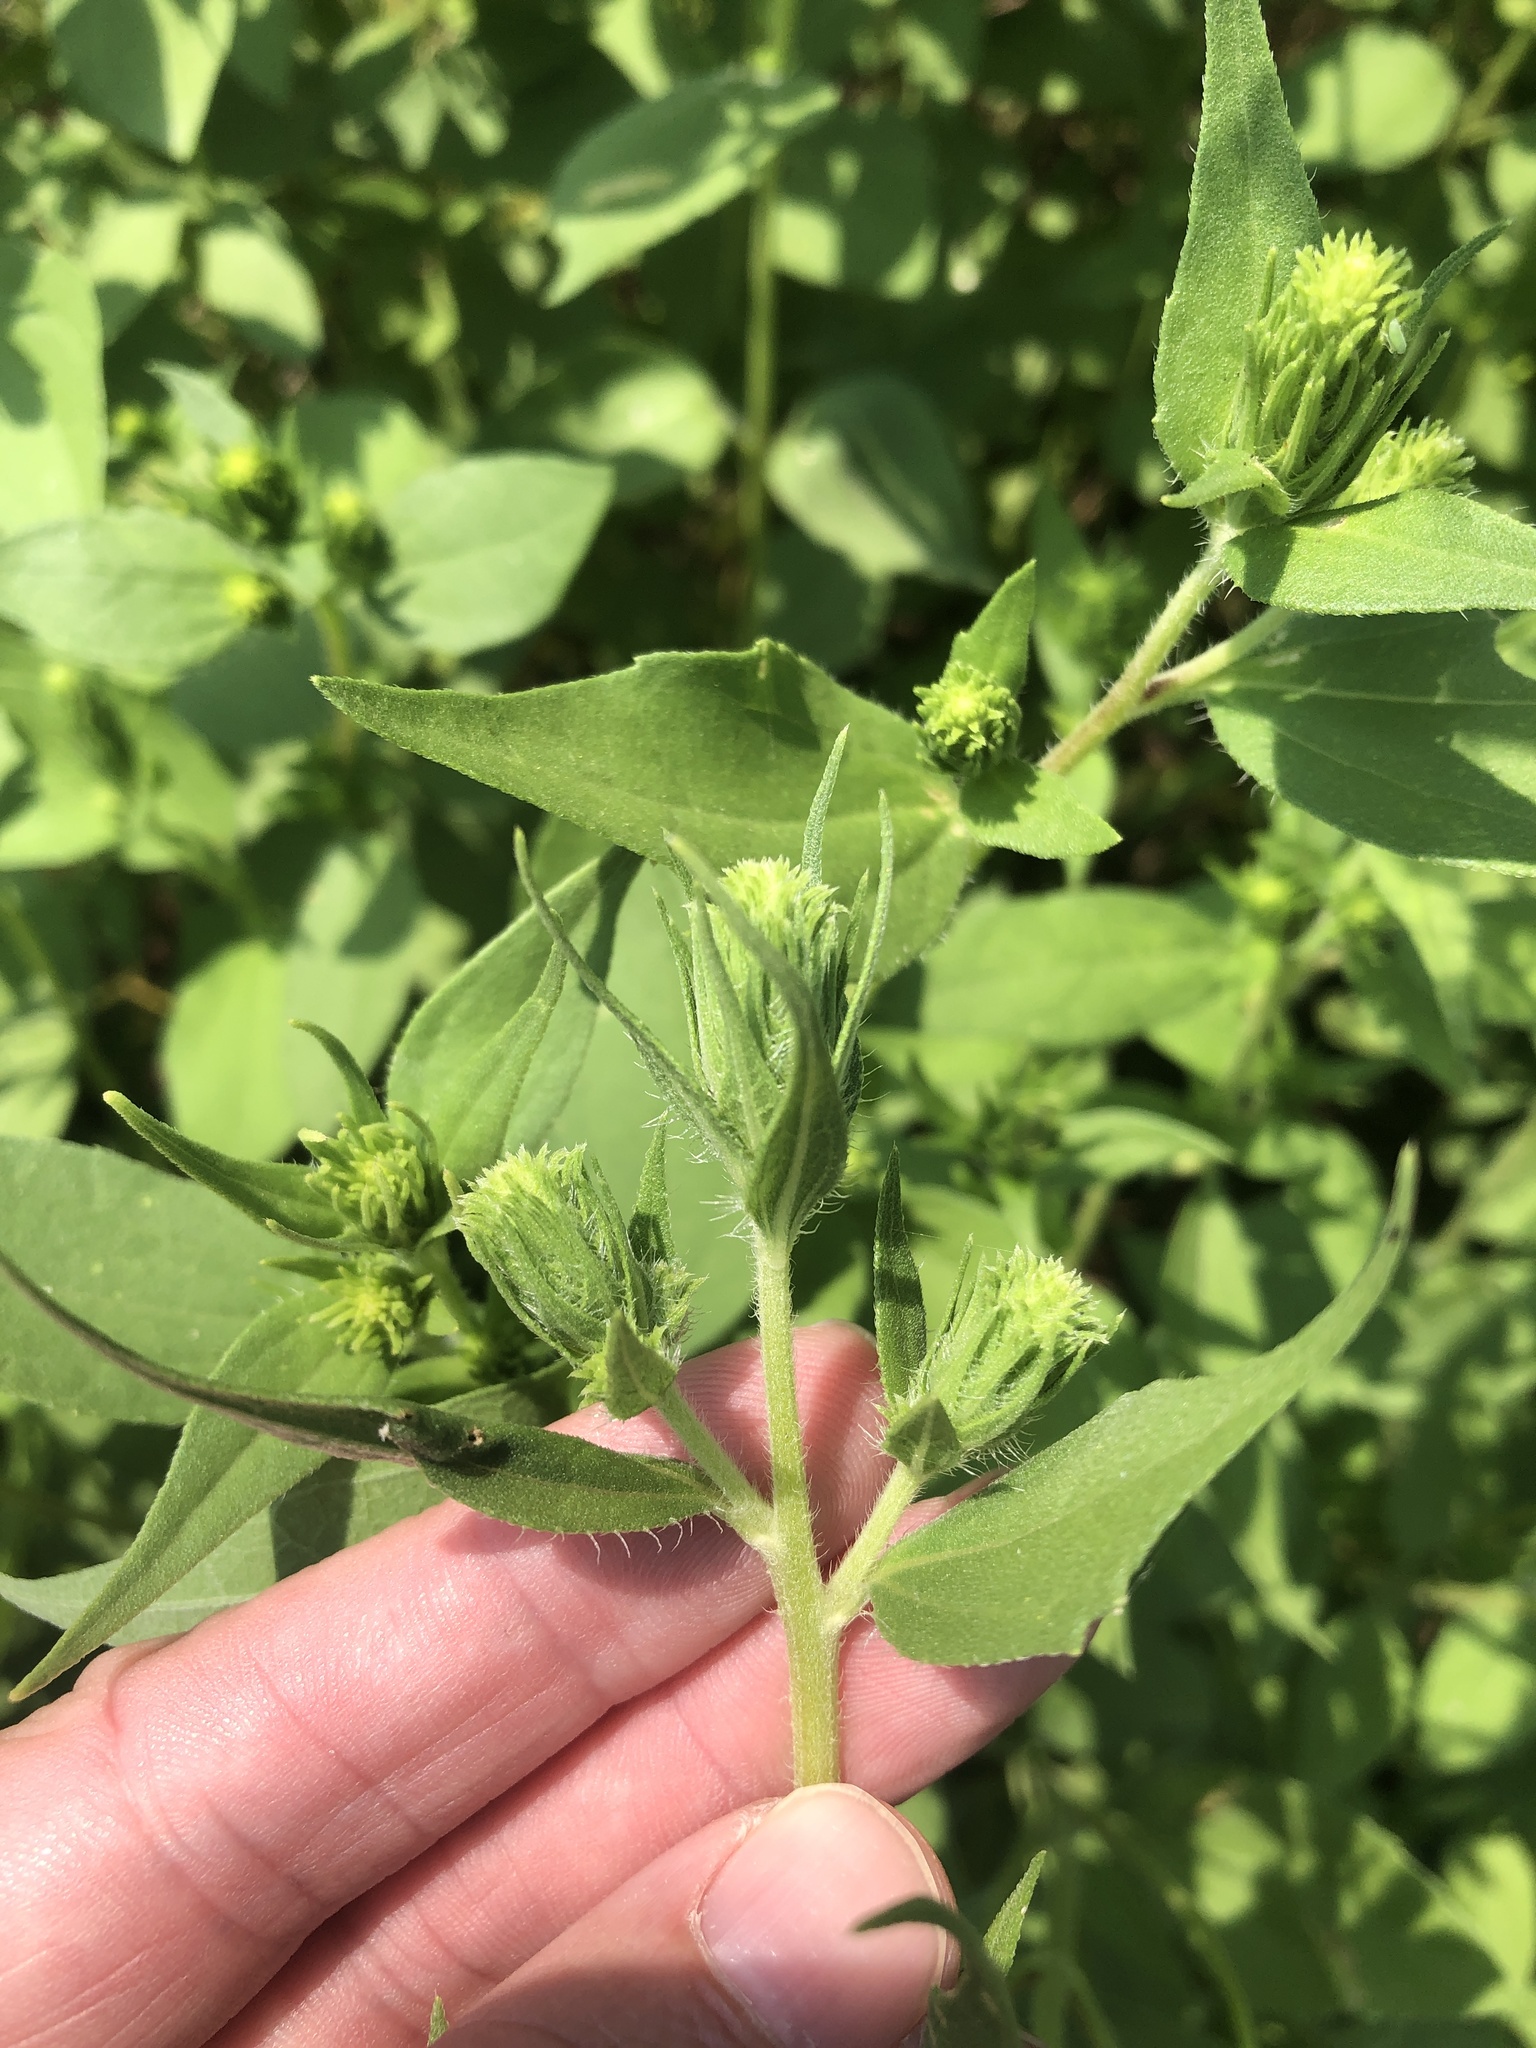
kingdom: Plantae
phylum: Tracheophyta
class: Magnoliopsida
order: Asterales
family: Asteraceae
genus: Iva
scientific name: Iva annua
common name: Marsh-elder
